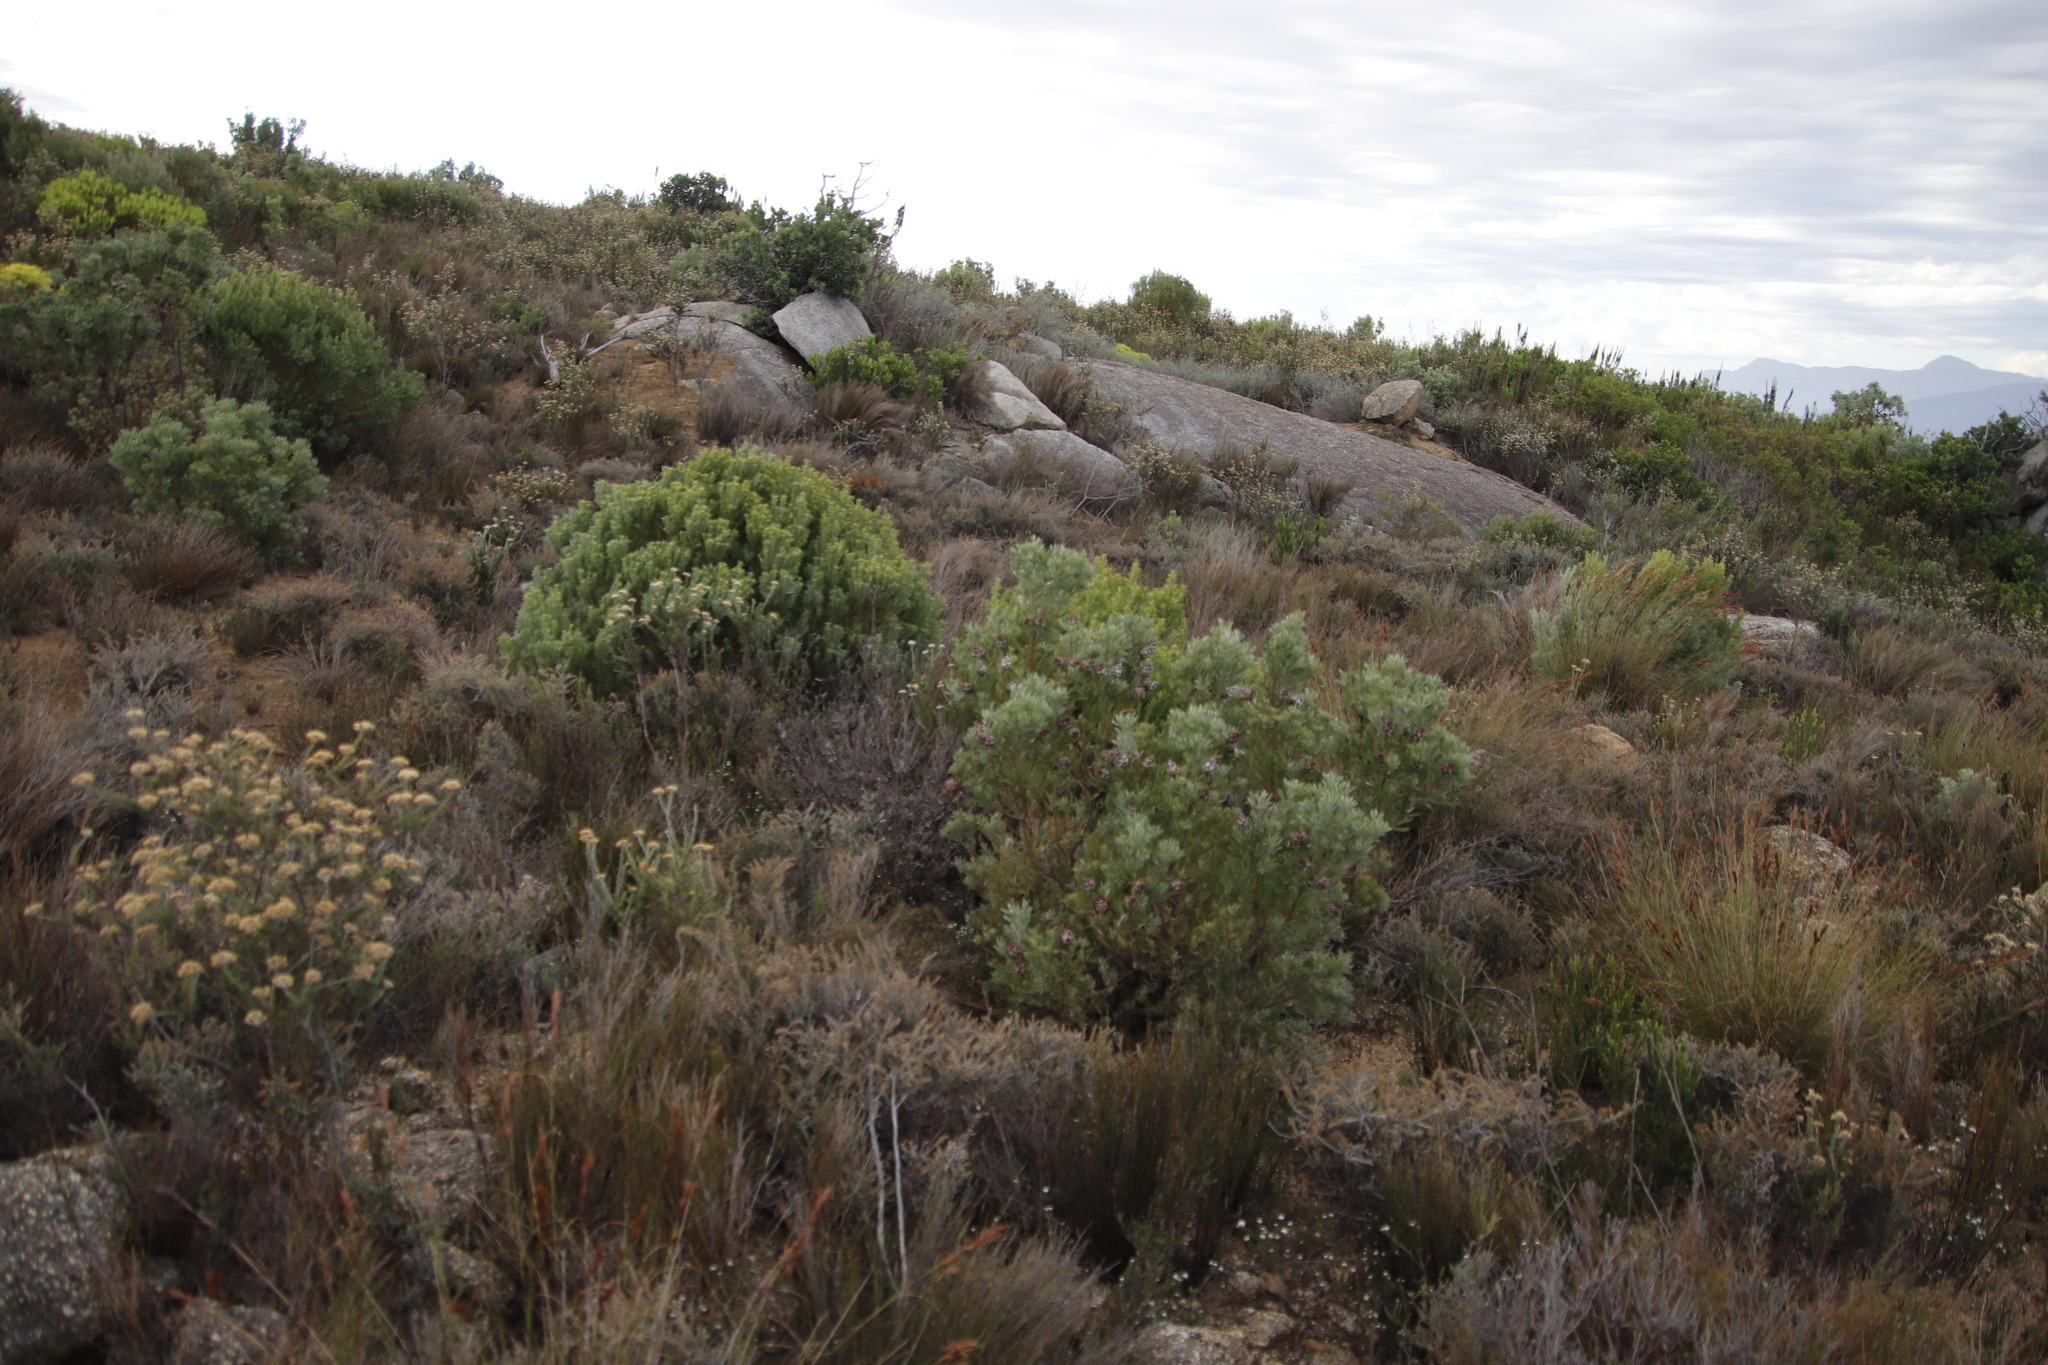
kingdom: Plantae
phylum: Tracheophyta
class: Magnoliopsida
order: Proteales
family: Proteaceae
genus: Leucadendron
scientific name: Leucadendron rubrum
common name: Spinning top
